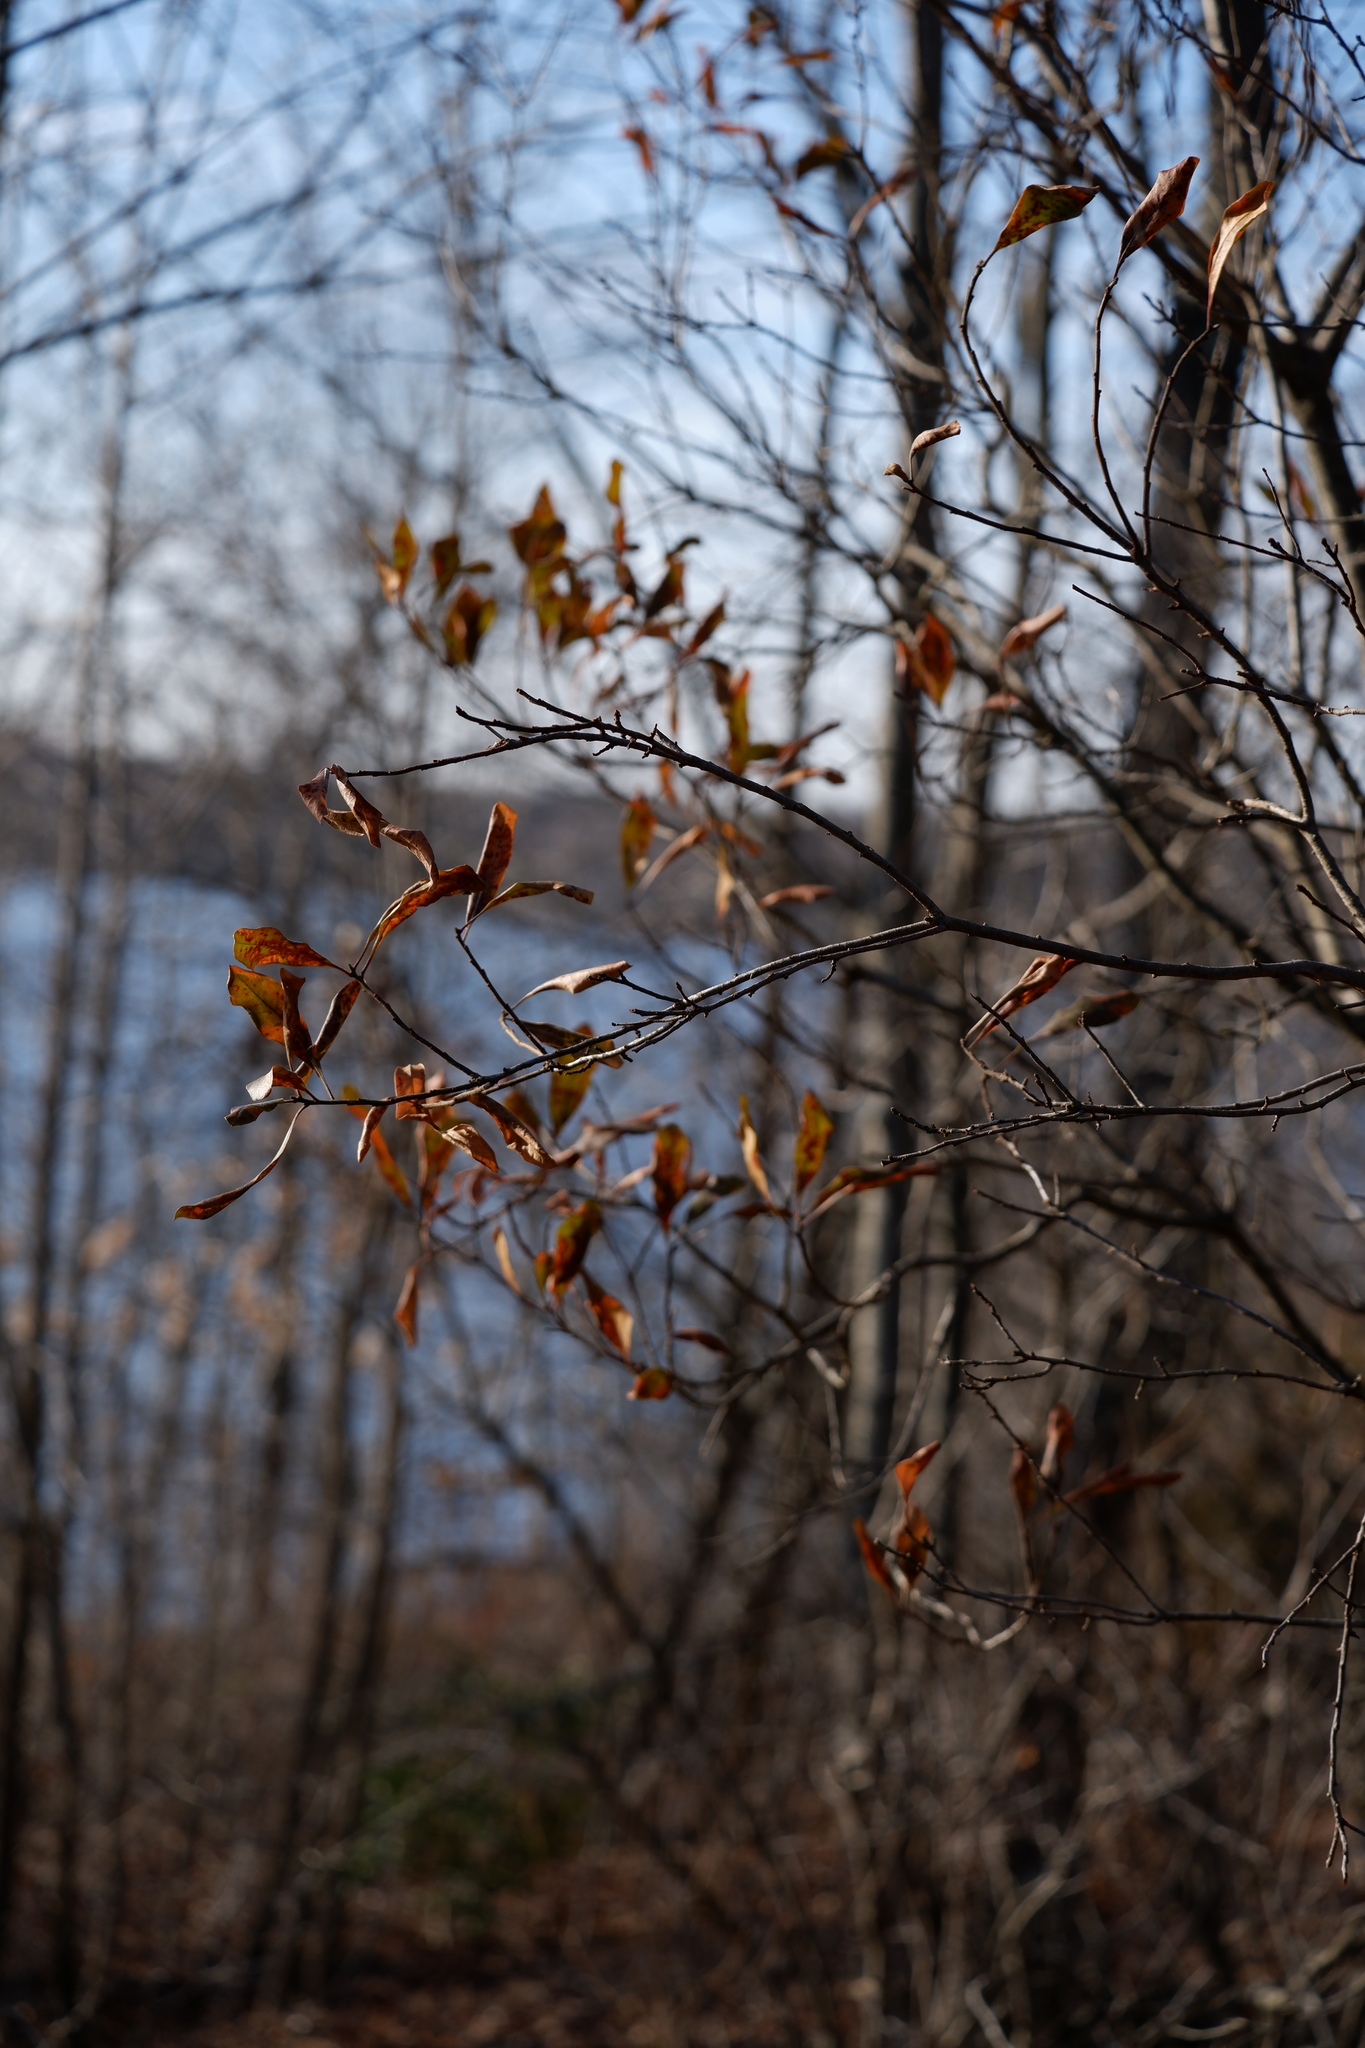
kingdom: Plantae
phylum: Tracheophyta
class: Magnoliopsida
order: Fagales
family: Myricaceae
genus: Morella
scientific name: Morella pensylvanica
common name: Northern bayberry
